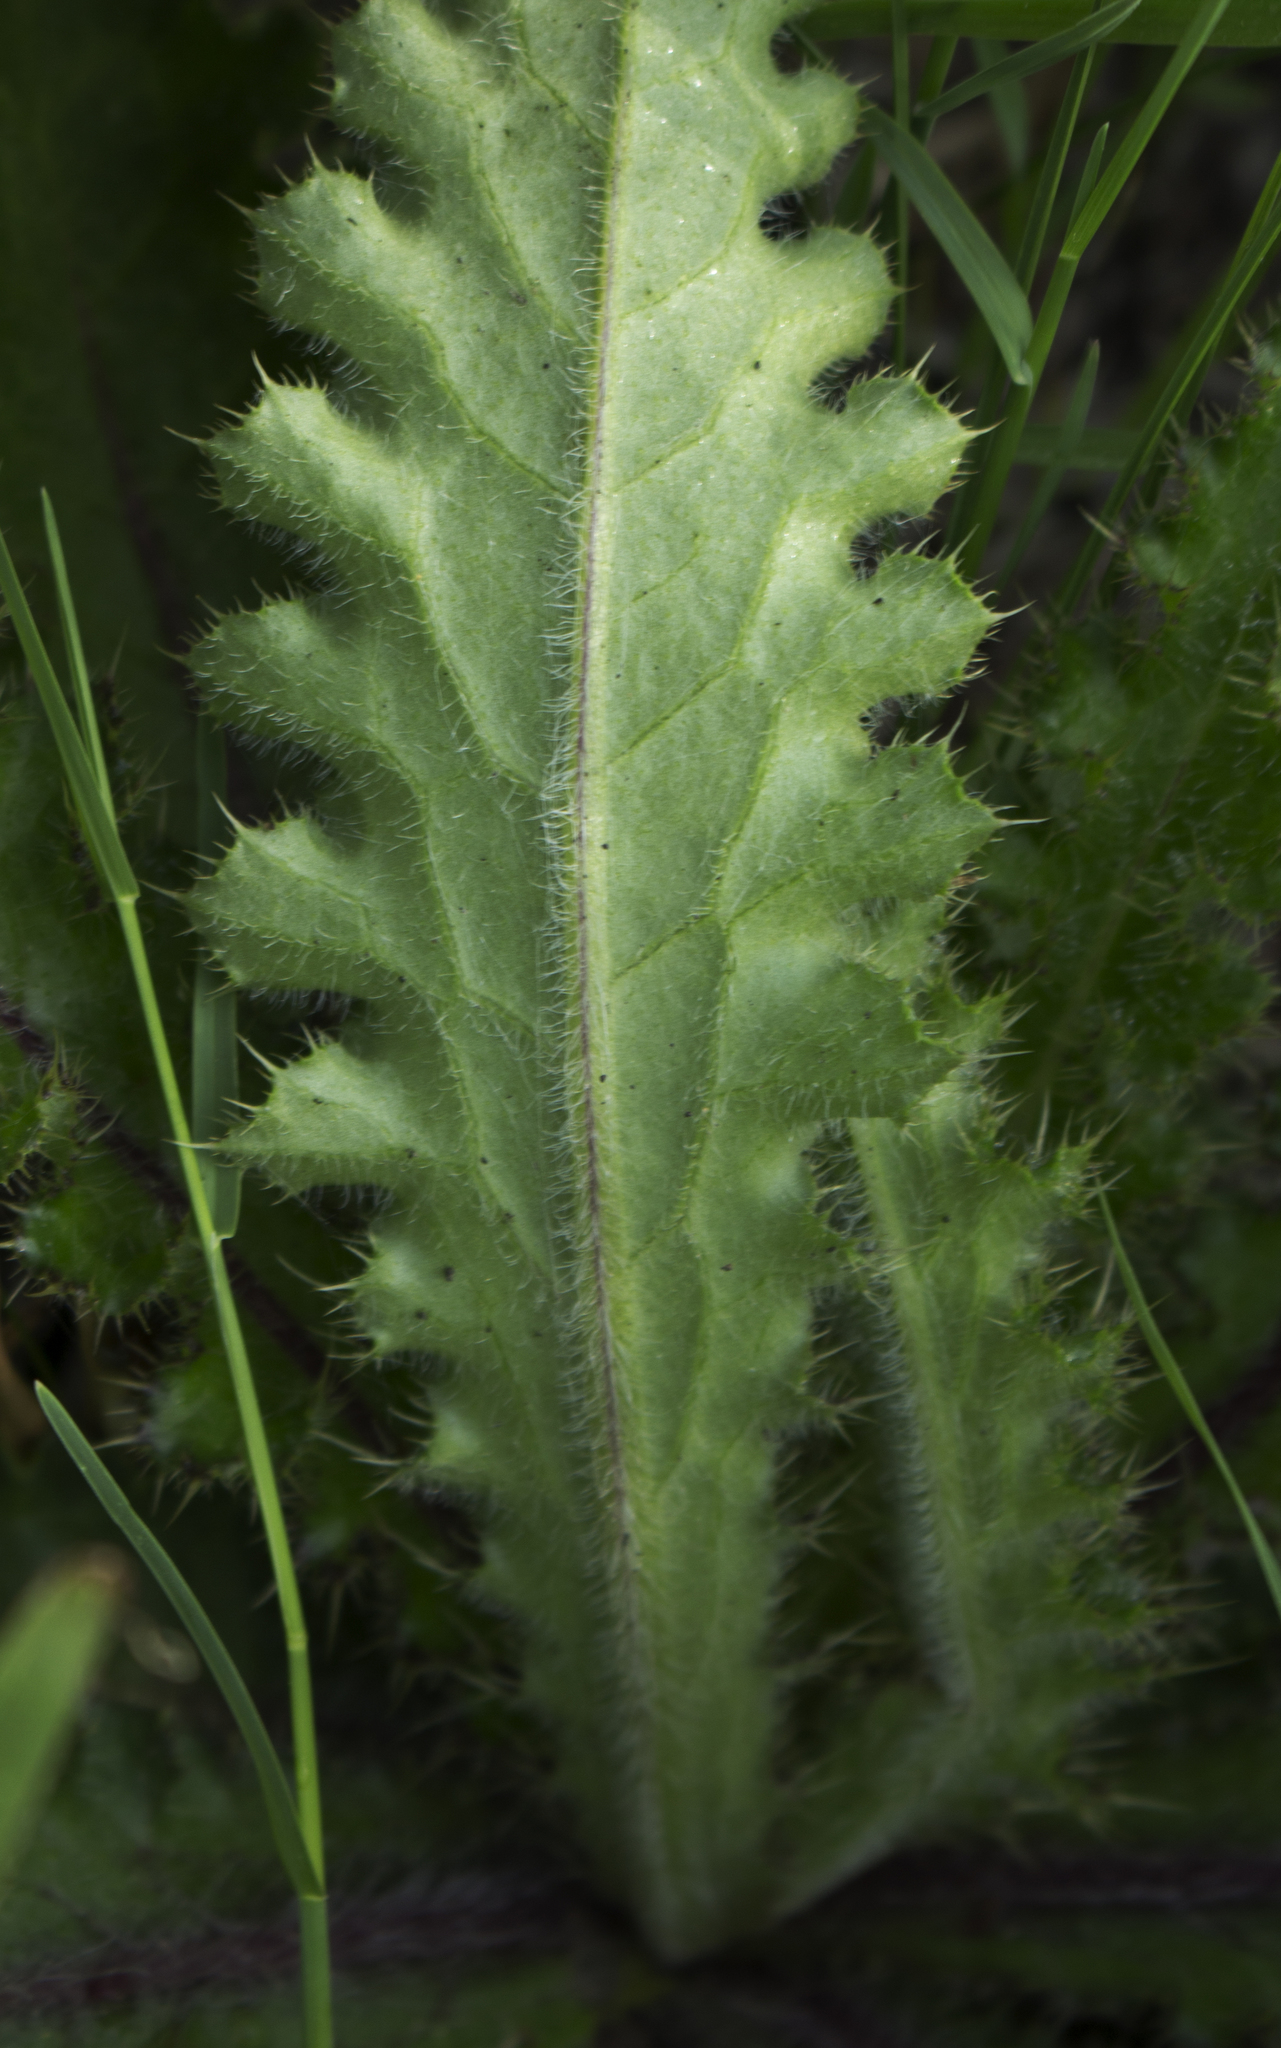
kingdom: Plantae
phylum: Tracheophyta
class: Magnoliopsida
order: Asterales
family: Asteraceae
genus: Cirsium
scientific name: Cirsium pumilum
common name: Pasture thistle
